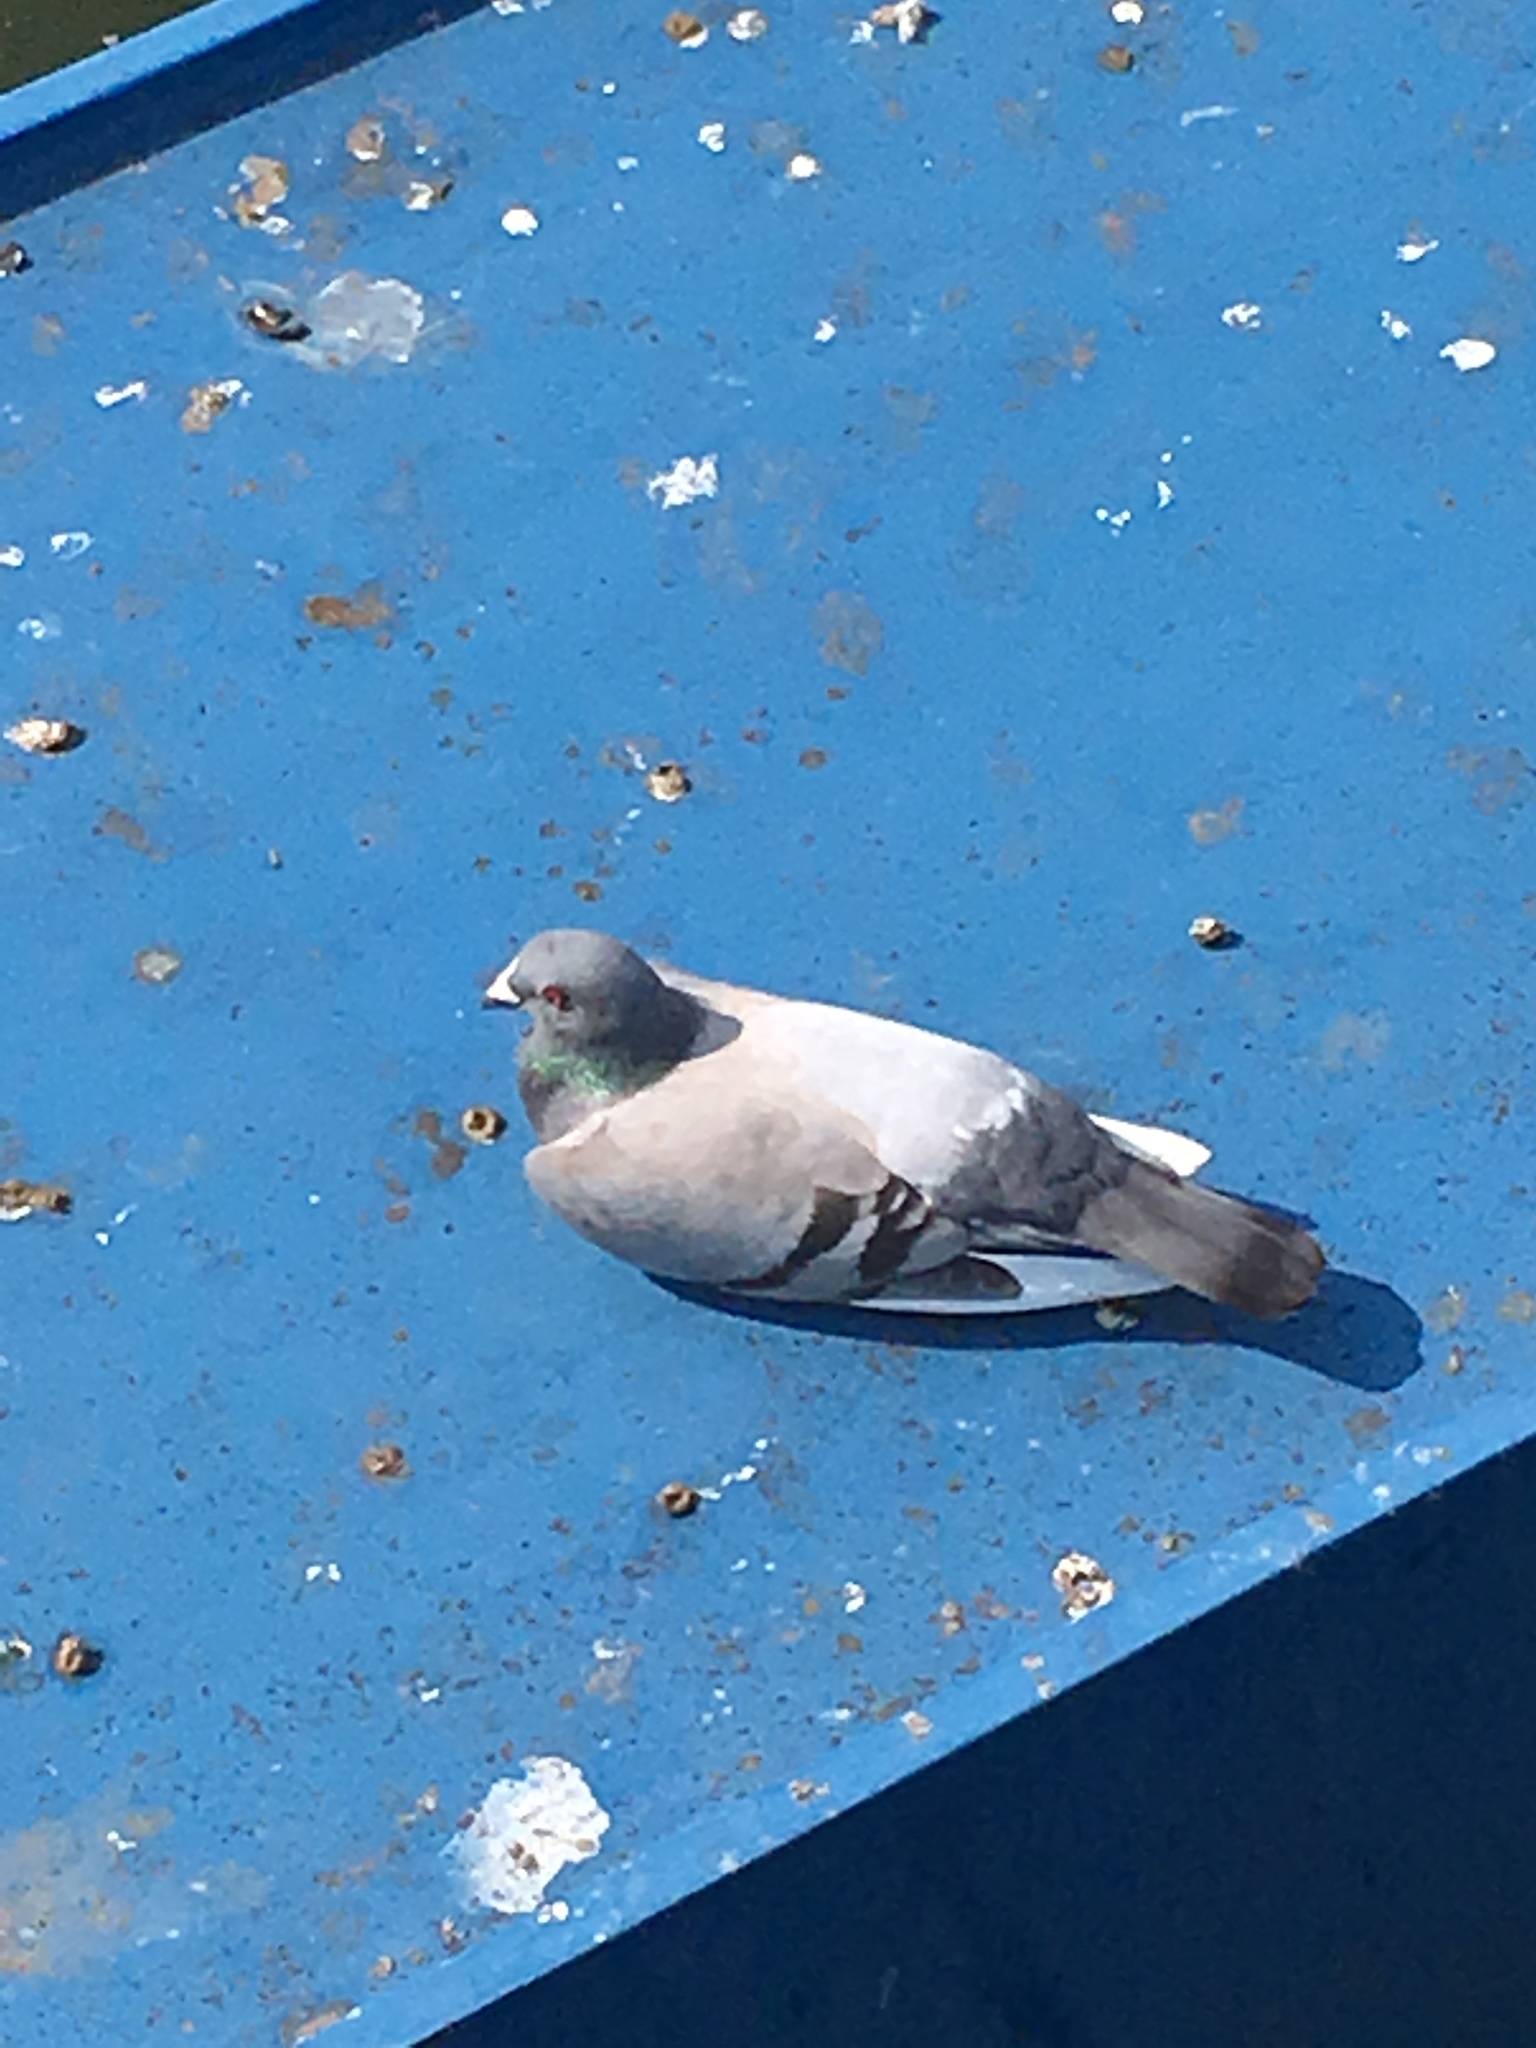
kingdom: Animalia
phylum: Chordata
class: Aves
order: Columbiformes
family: Columbidae
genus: Columba
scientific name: Columba livia
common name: Rock pigeon
